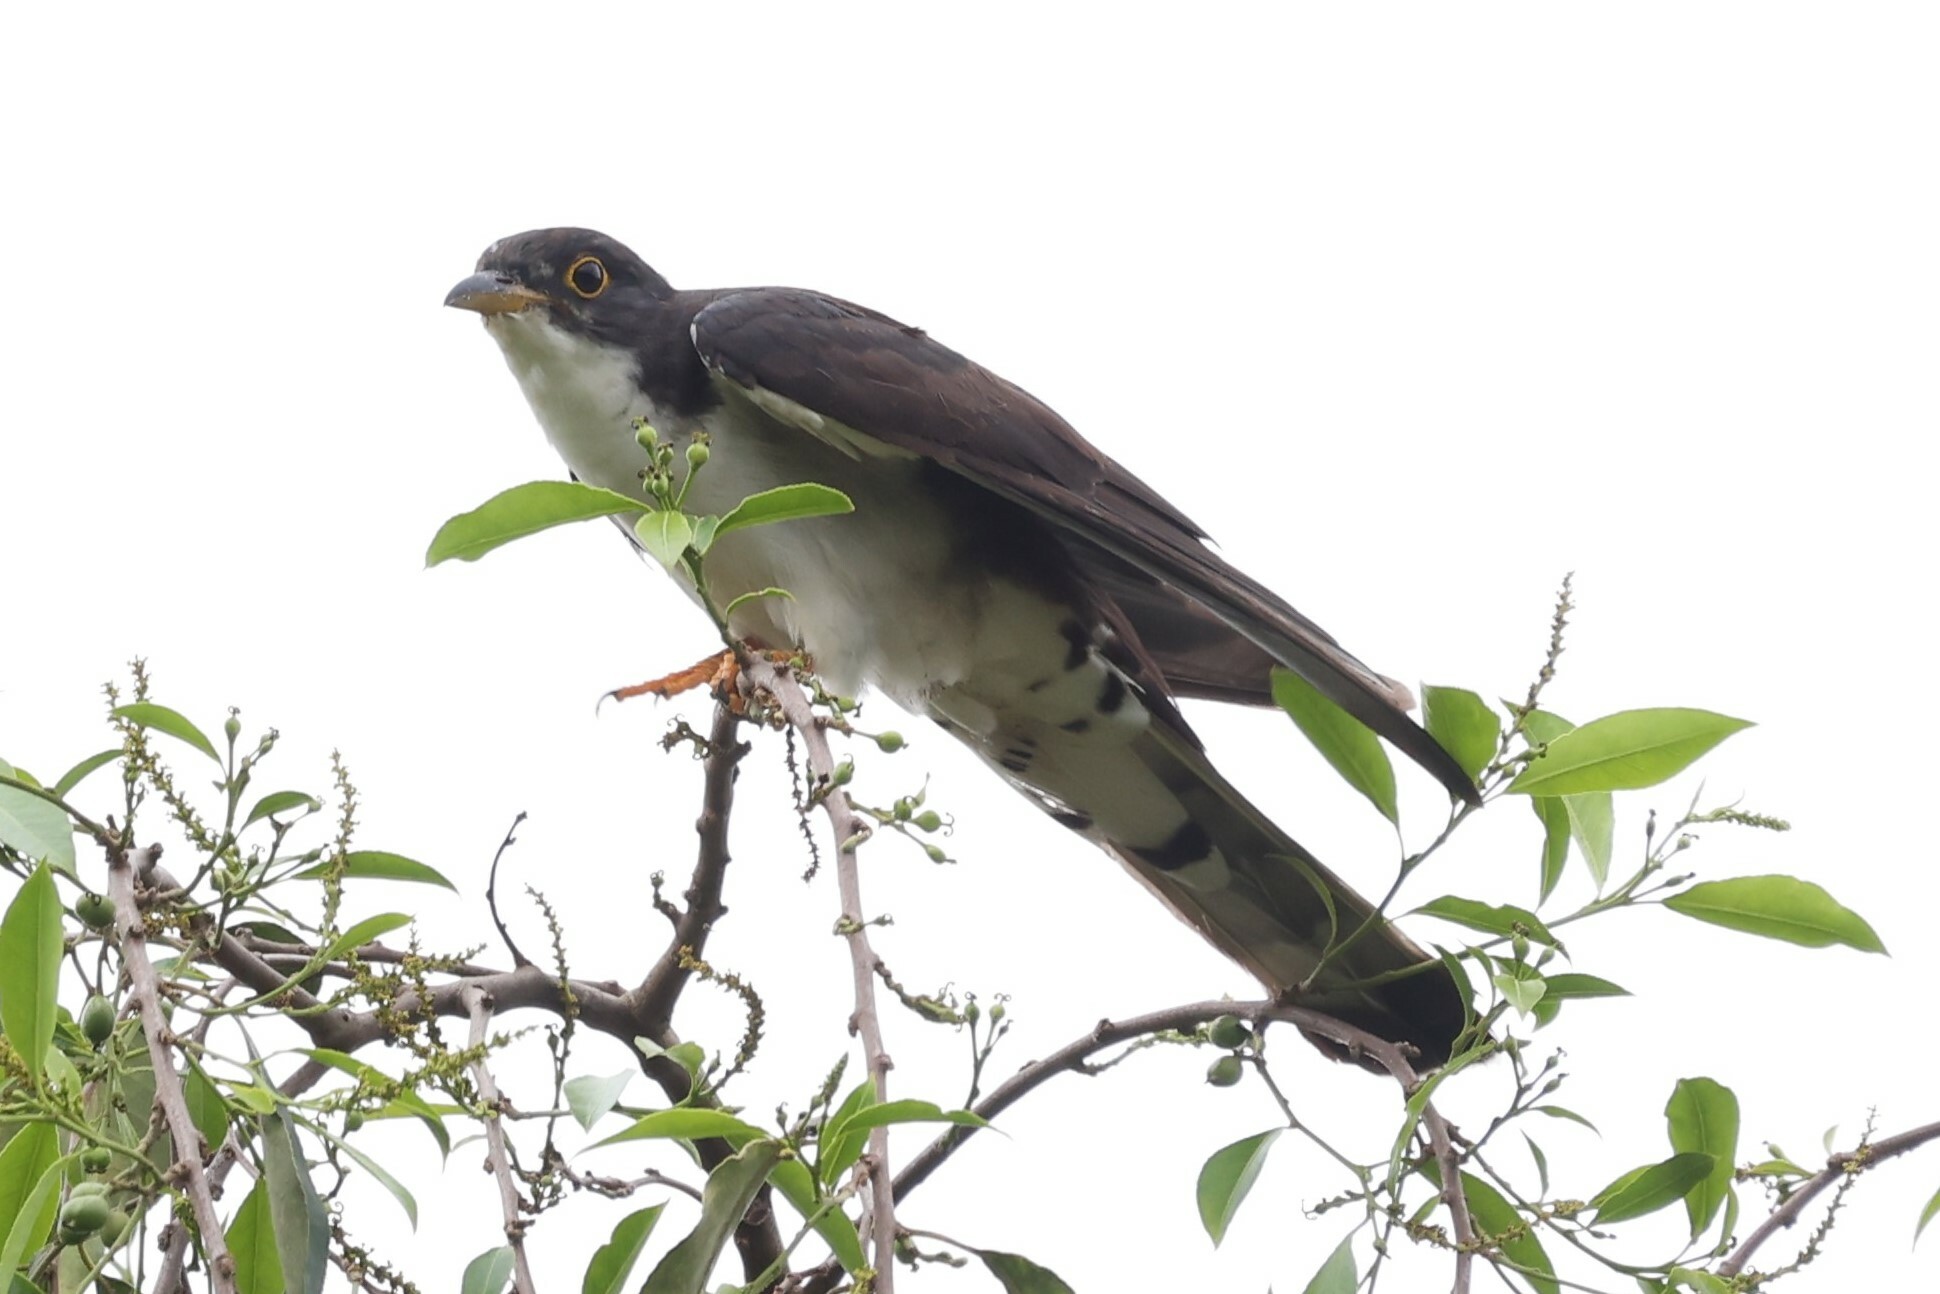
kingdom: Animalia
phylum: Chordata
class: Aves
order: Cuculiformes
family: Cuculidae
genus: Pachycoccyx
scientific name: Pachycoccyx audeberti
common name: Thick-billed cuckoo
